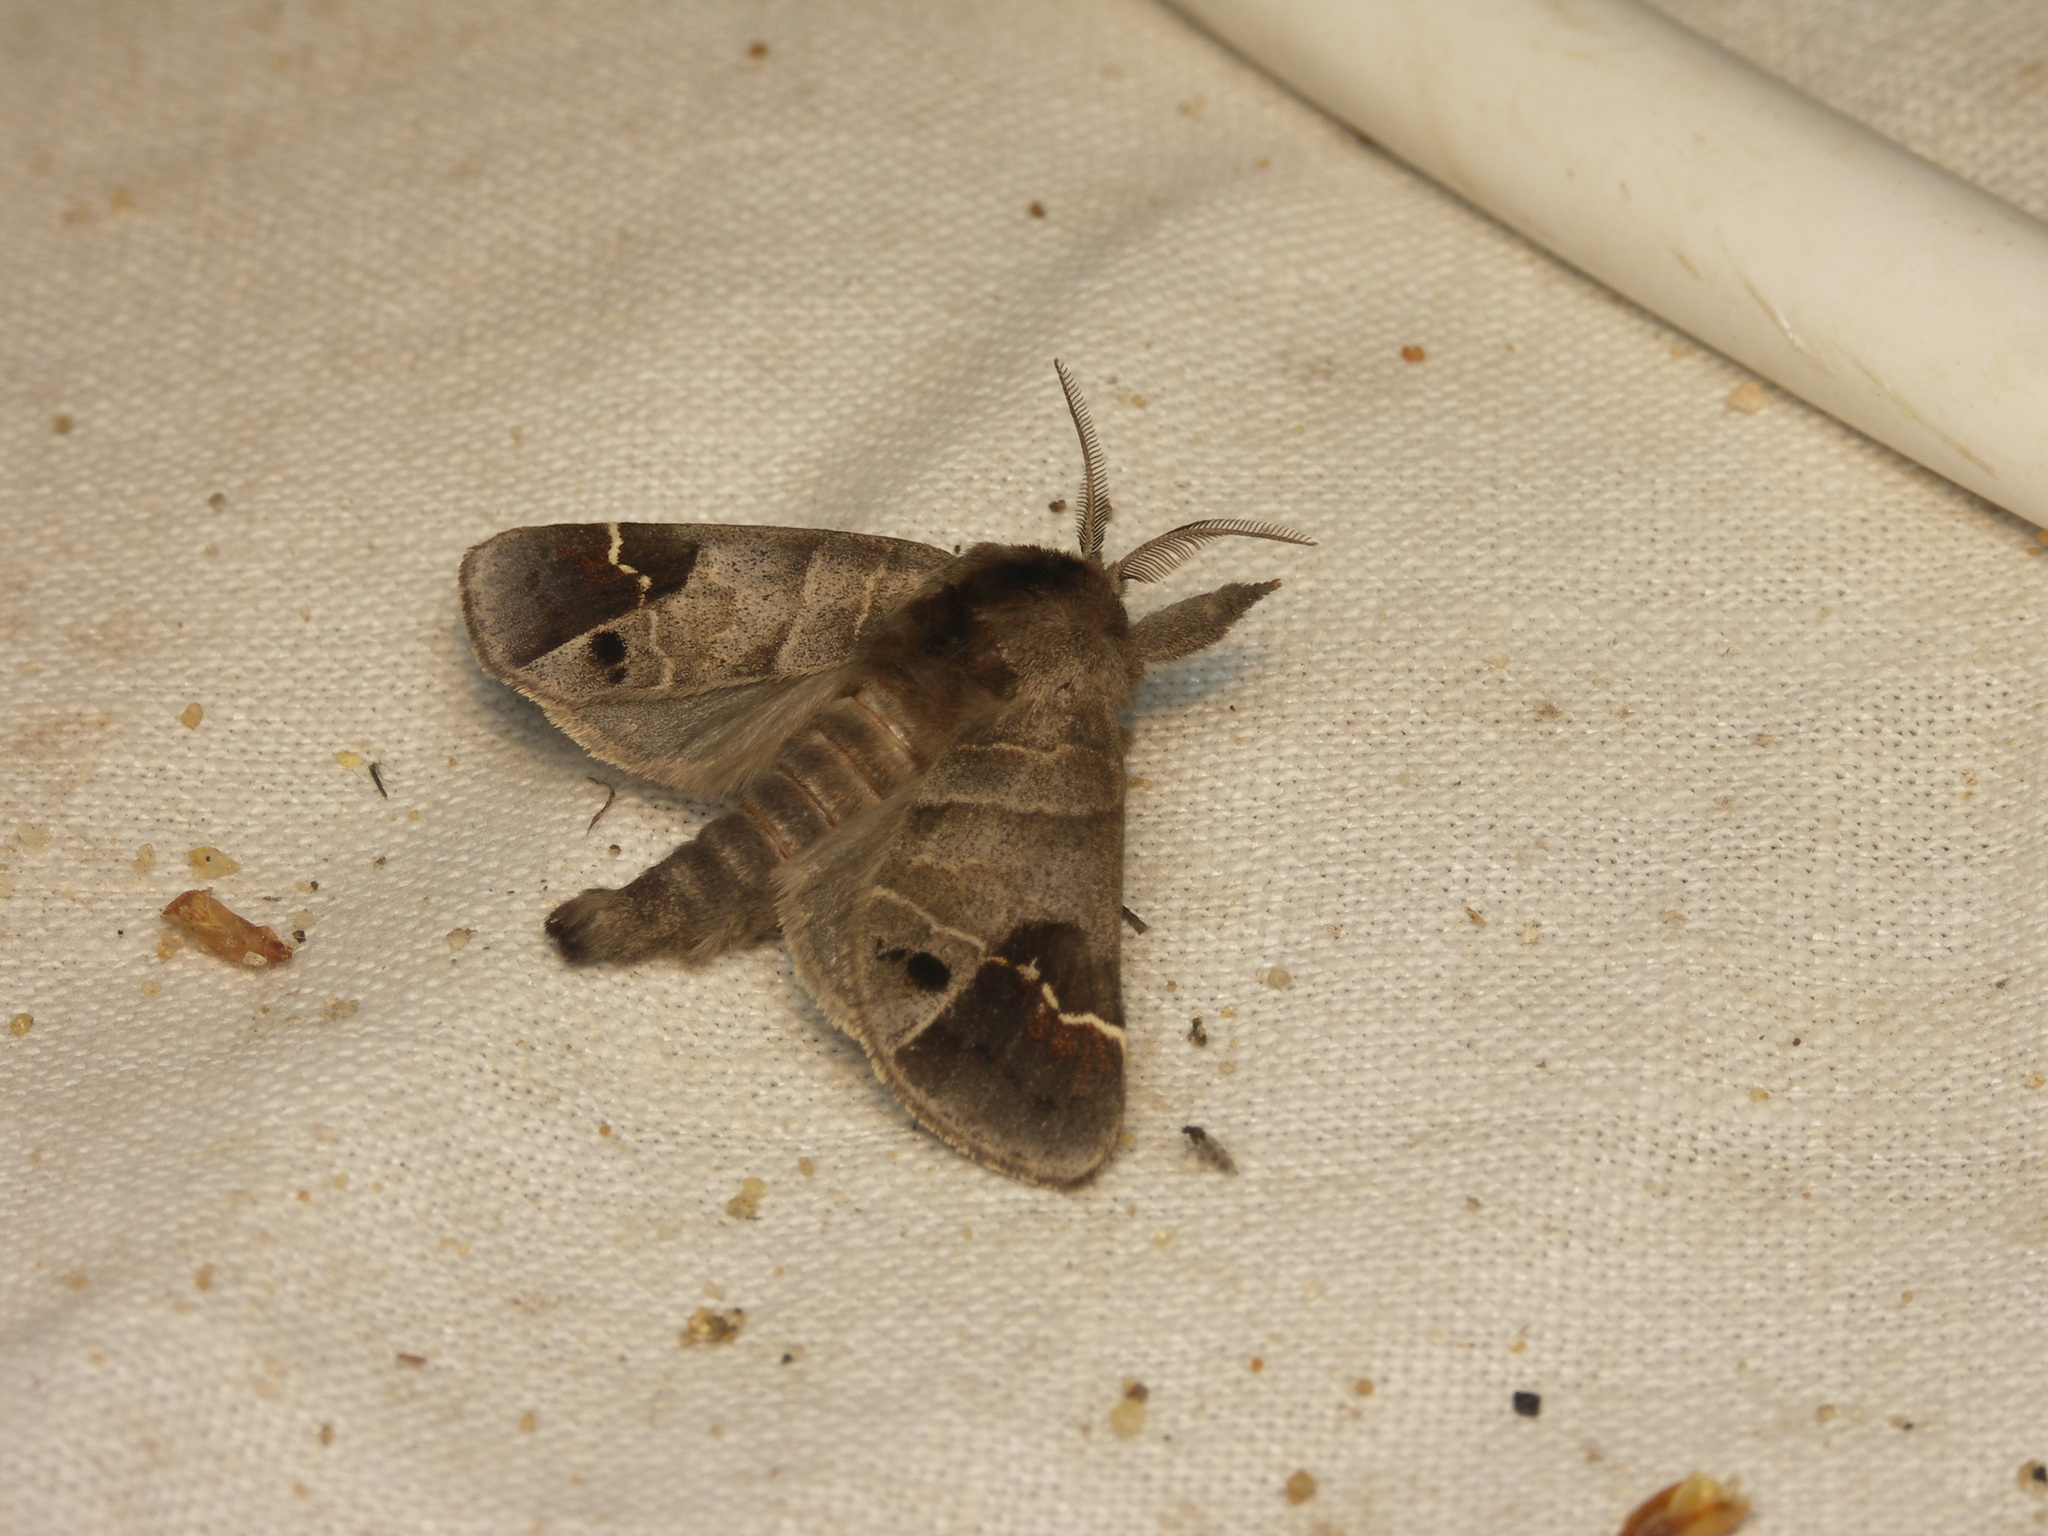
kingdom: Animalia
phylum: Arthropoda
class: Insecta
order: Lepidoptera
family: Notodontidae
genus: Clostera
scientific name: Clostera anachoreta
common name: Scarce chocolate-tip
